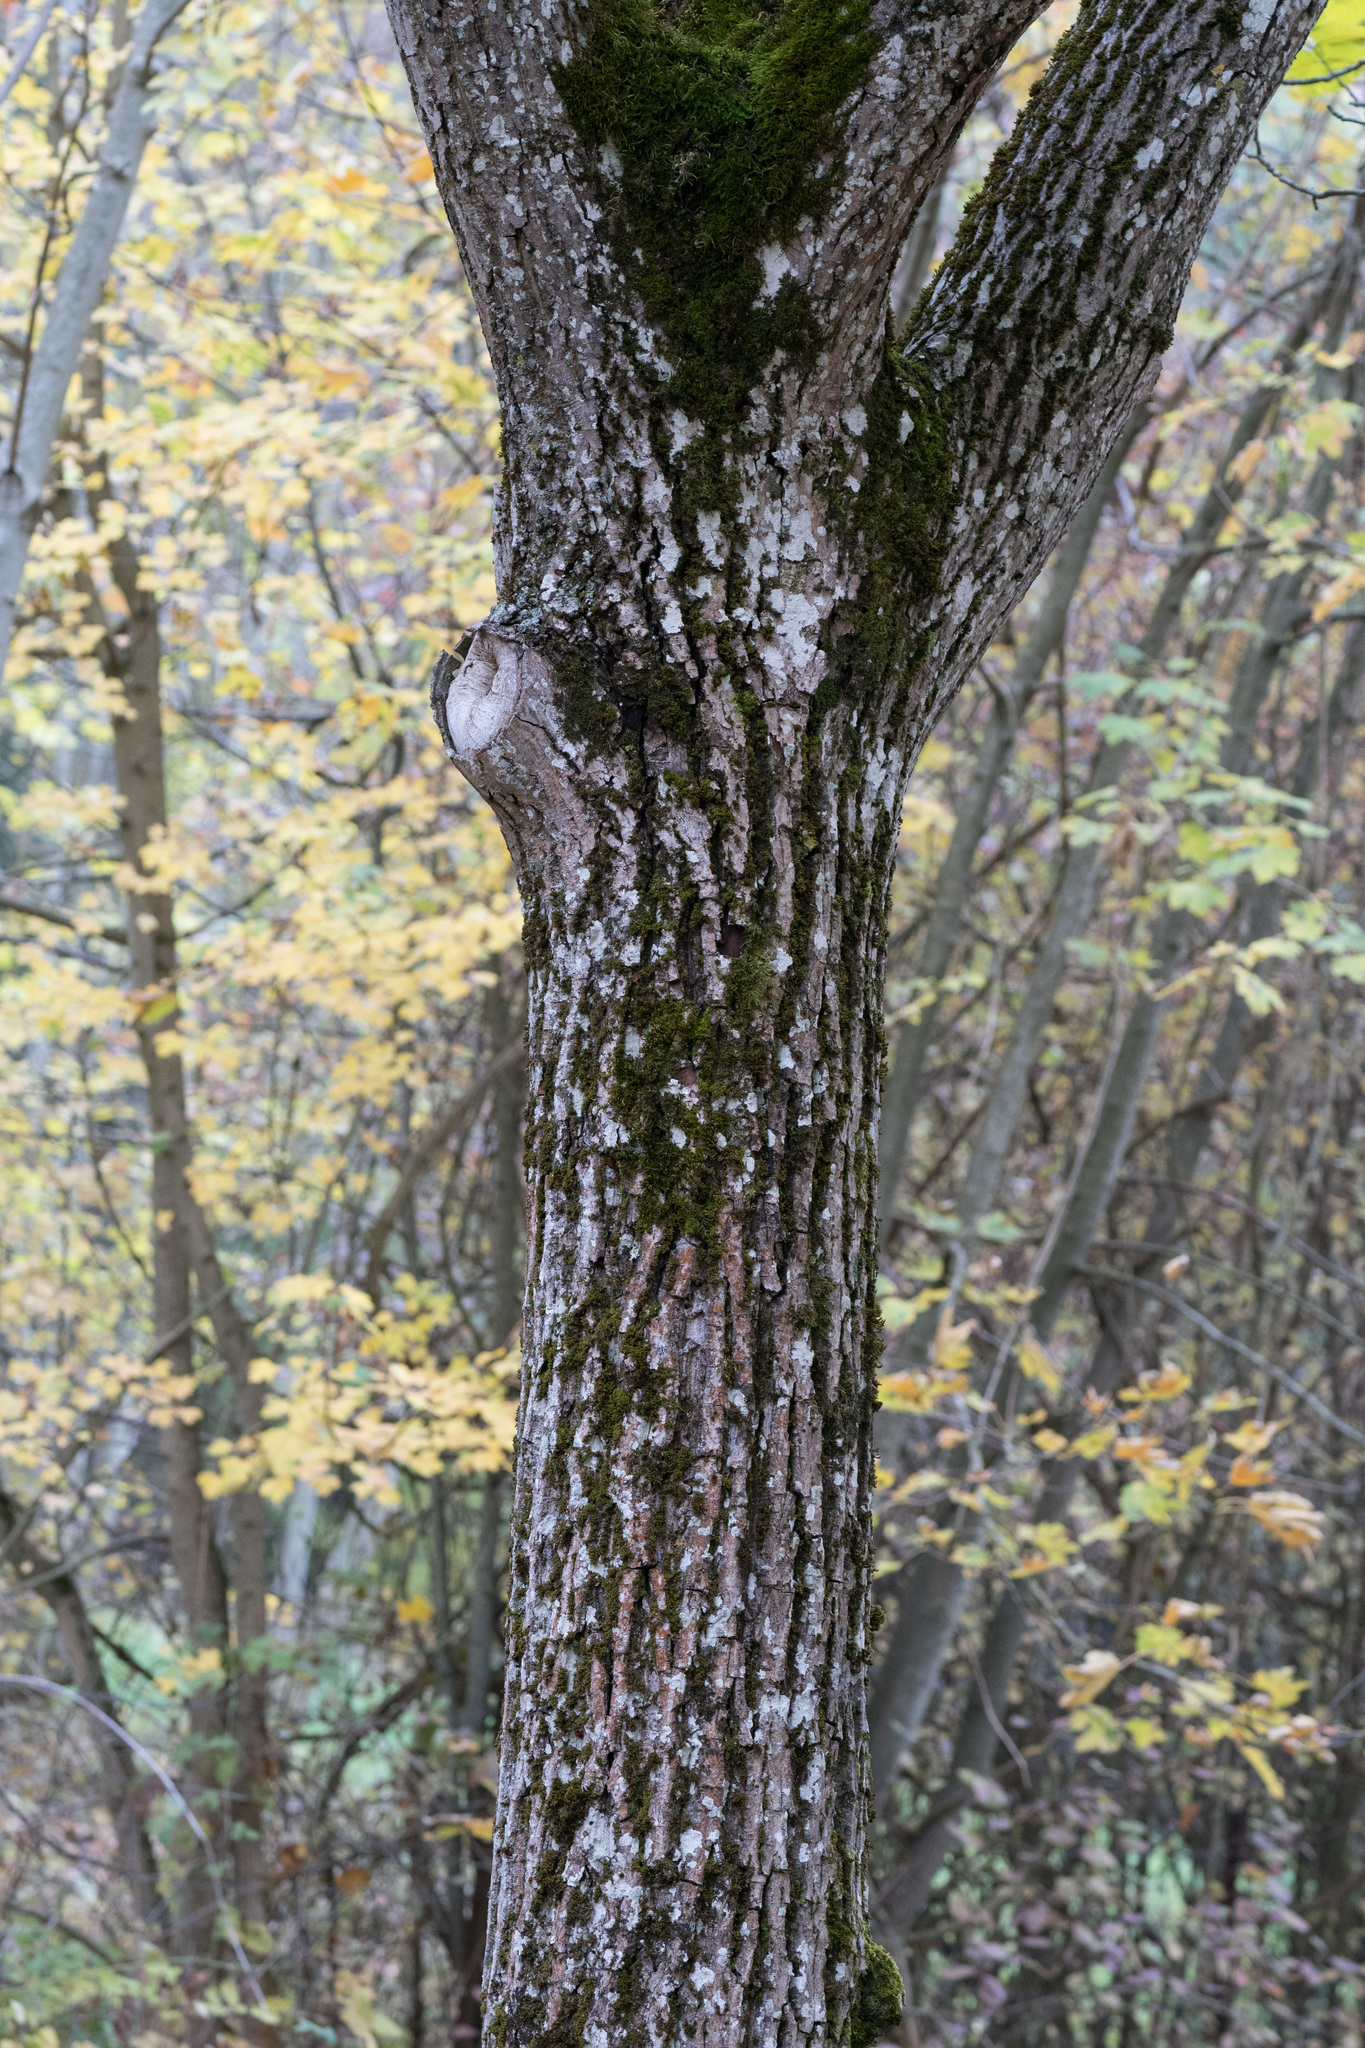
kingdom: Plantae
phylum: Tracheophyta
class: Magnoliopsida
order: Cornales
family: Cornaceae
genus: Cornus
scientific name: Cornus sanguinea
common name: Dogwood
